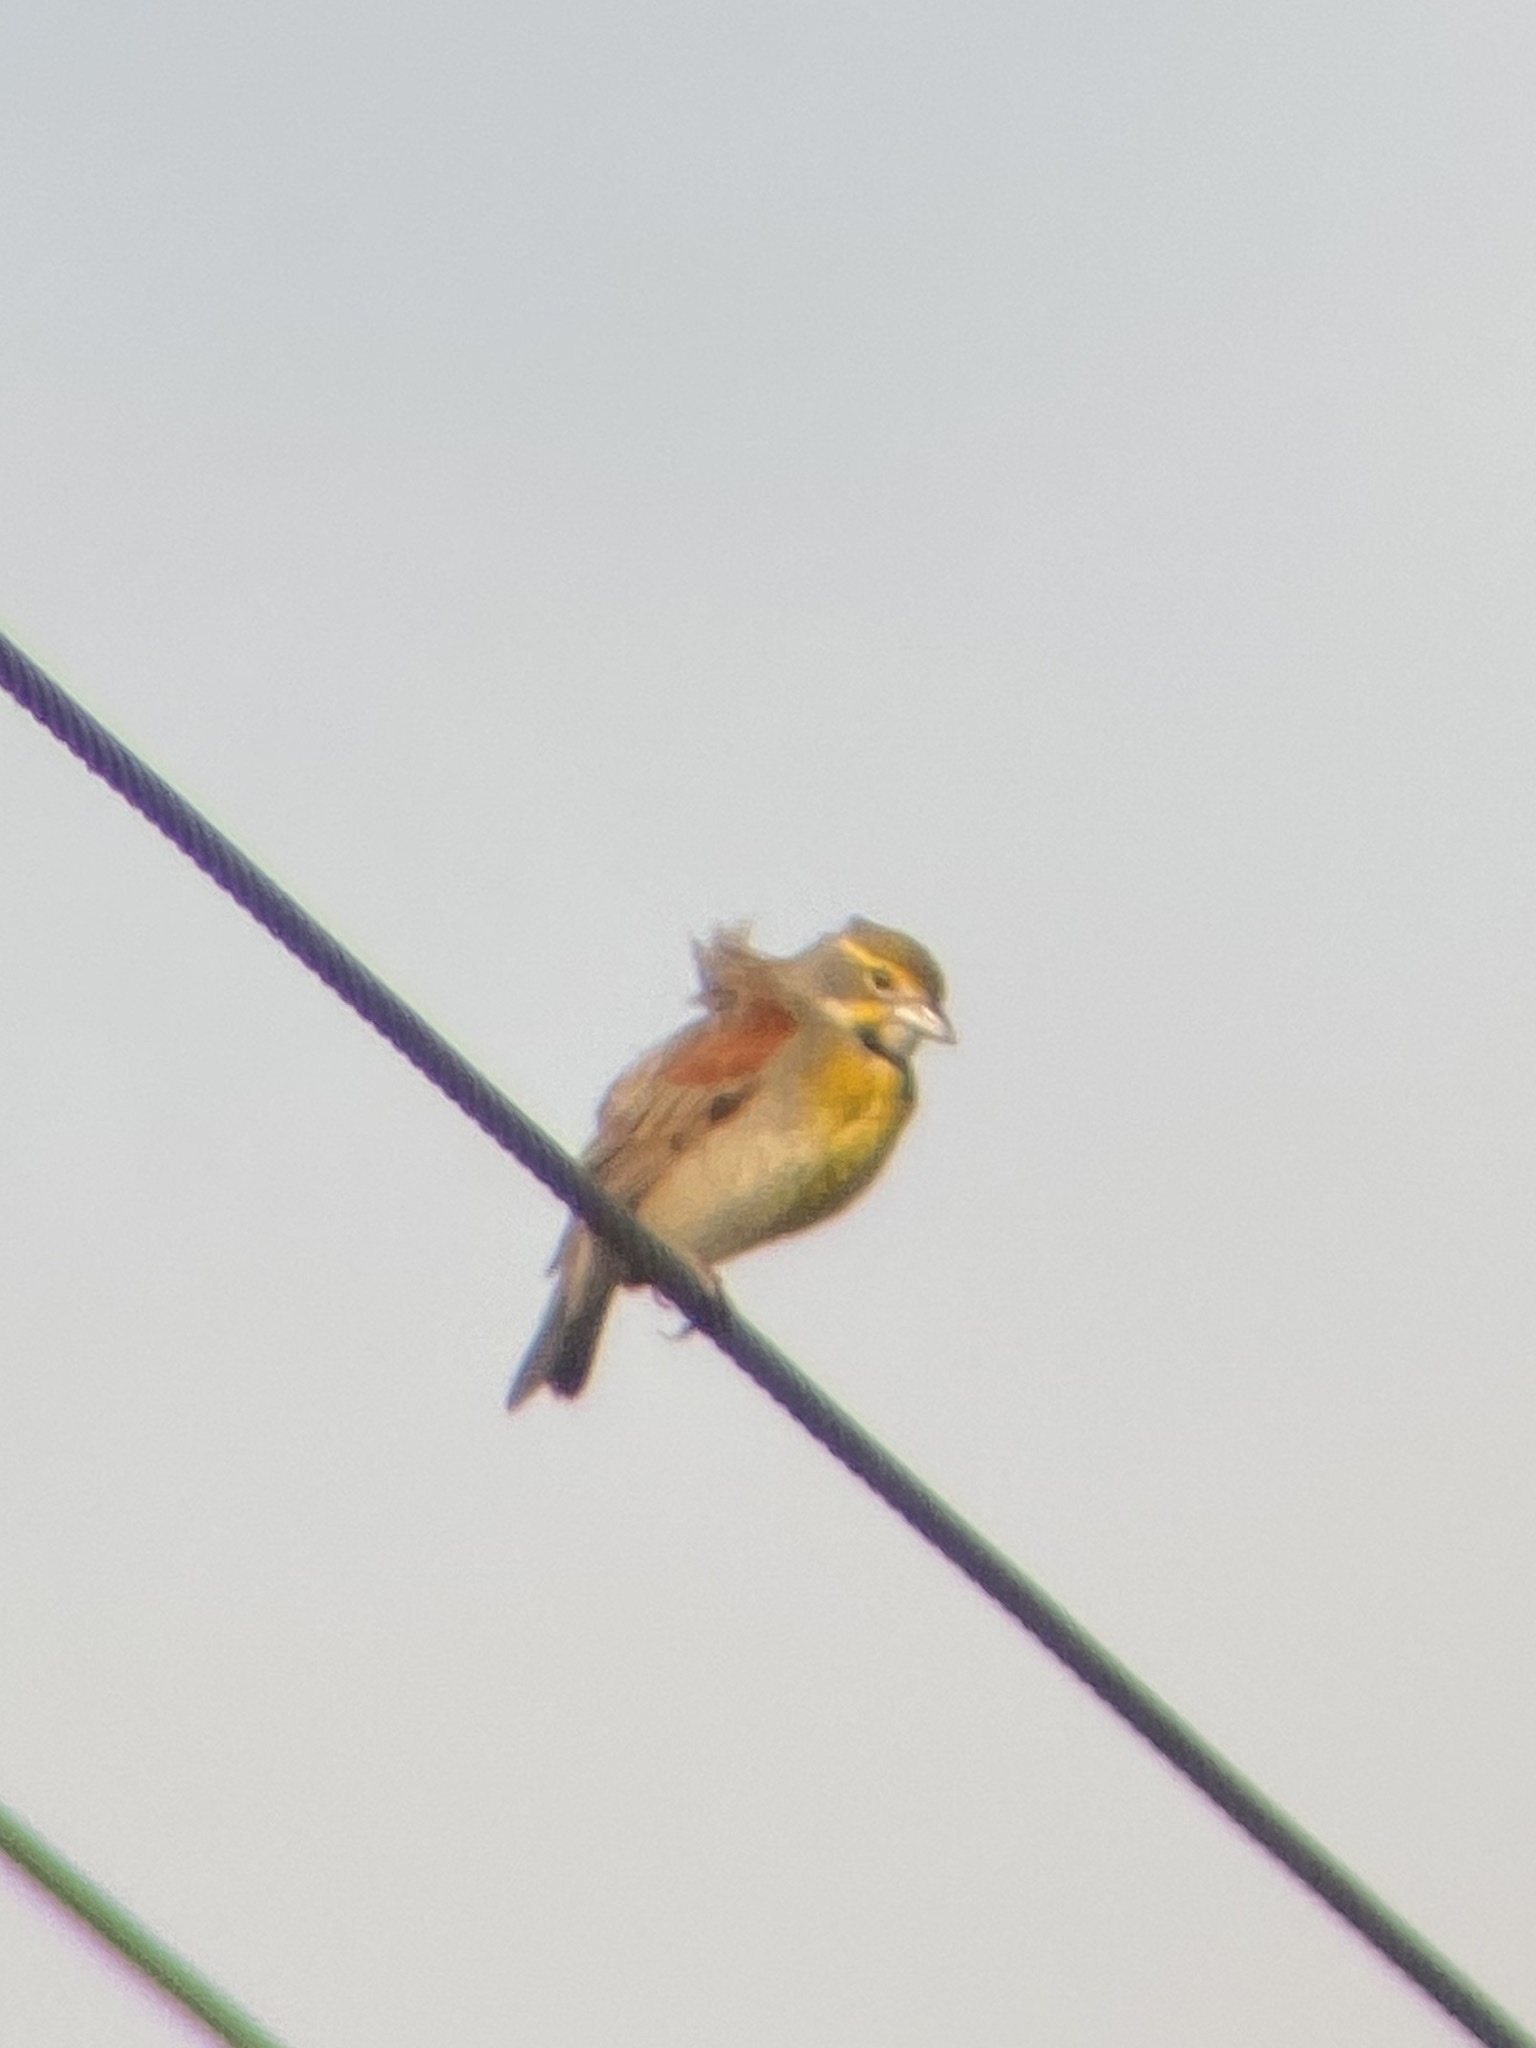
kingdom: Animalia
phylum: Chordata
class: Aves
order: Passeriformes
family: Cardinalidae
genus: Spiza
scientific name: Spiza americana
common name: Dickcissel
